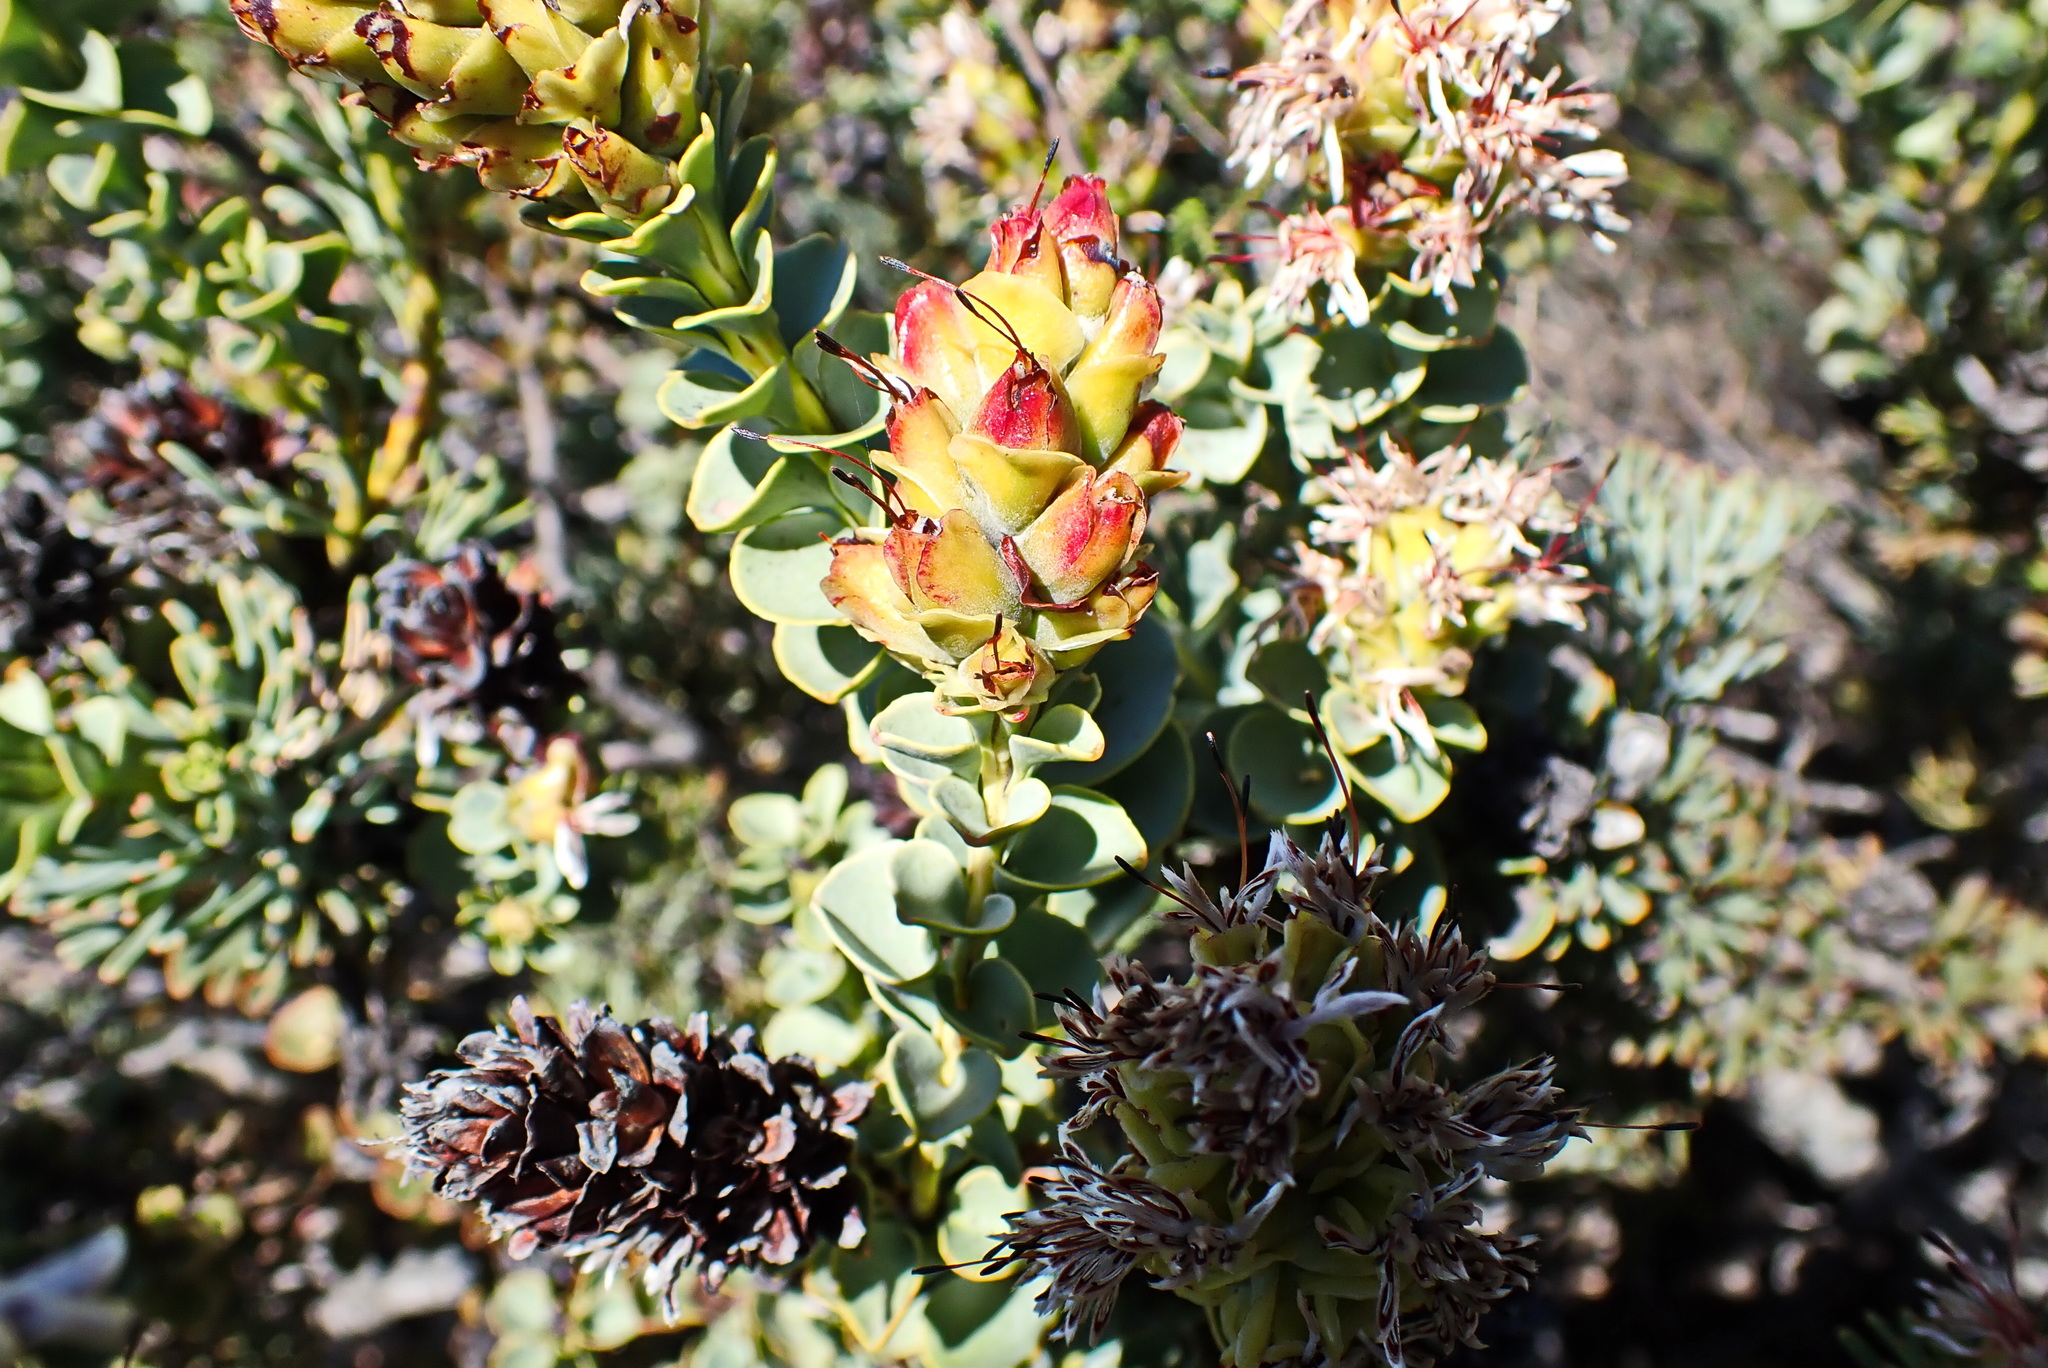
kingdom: Plantae
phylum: Tracheophyta
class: Magnoliopsida
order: Proteales
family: Proteaceae
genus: Paranomus
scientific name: Paranomus roodebergensis
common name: Honey-scented sceptre
